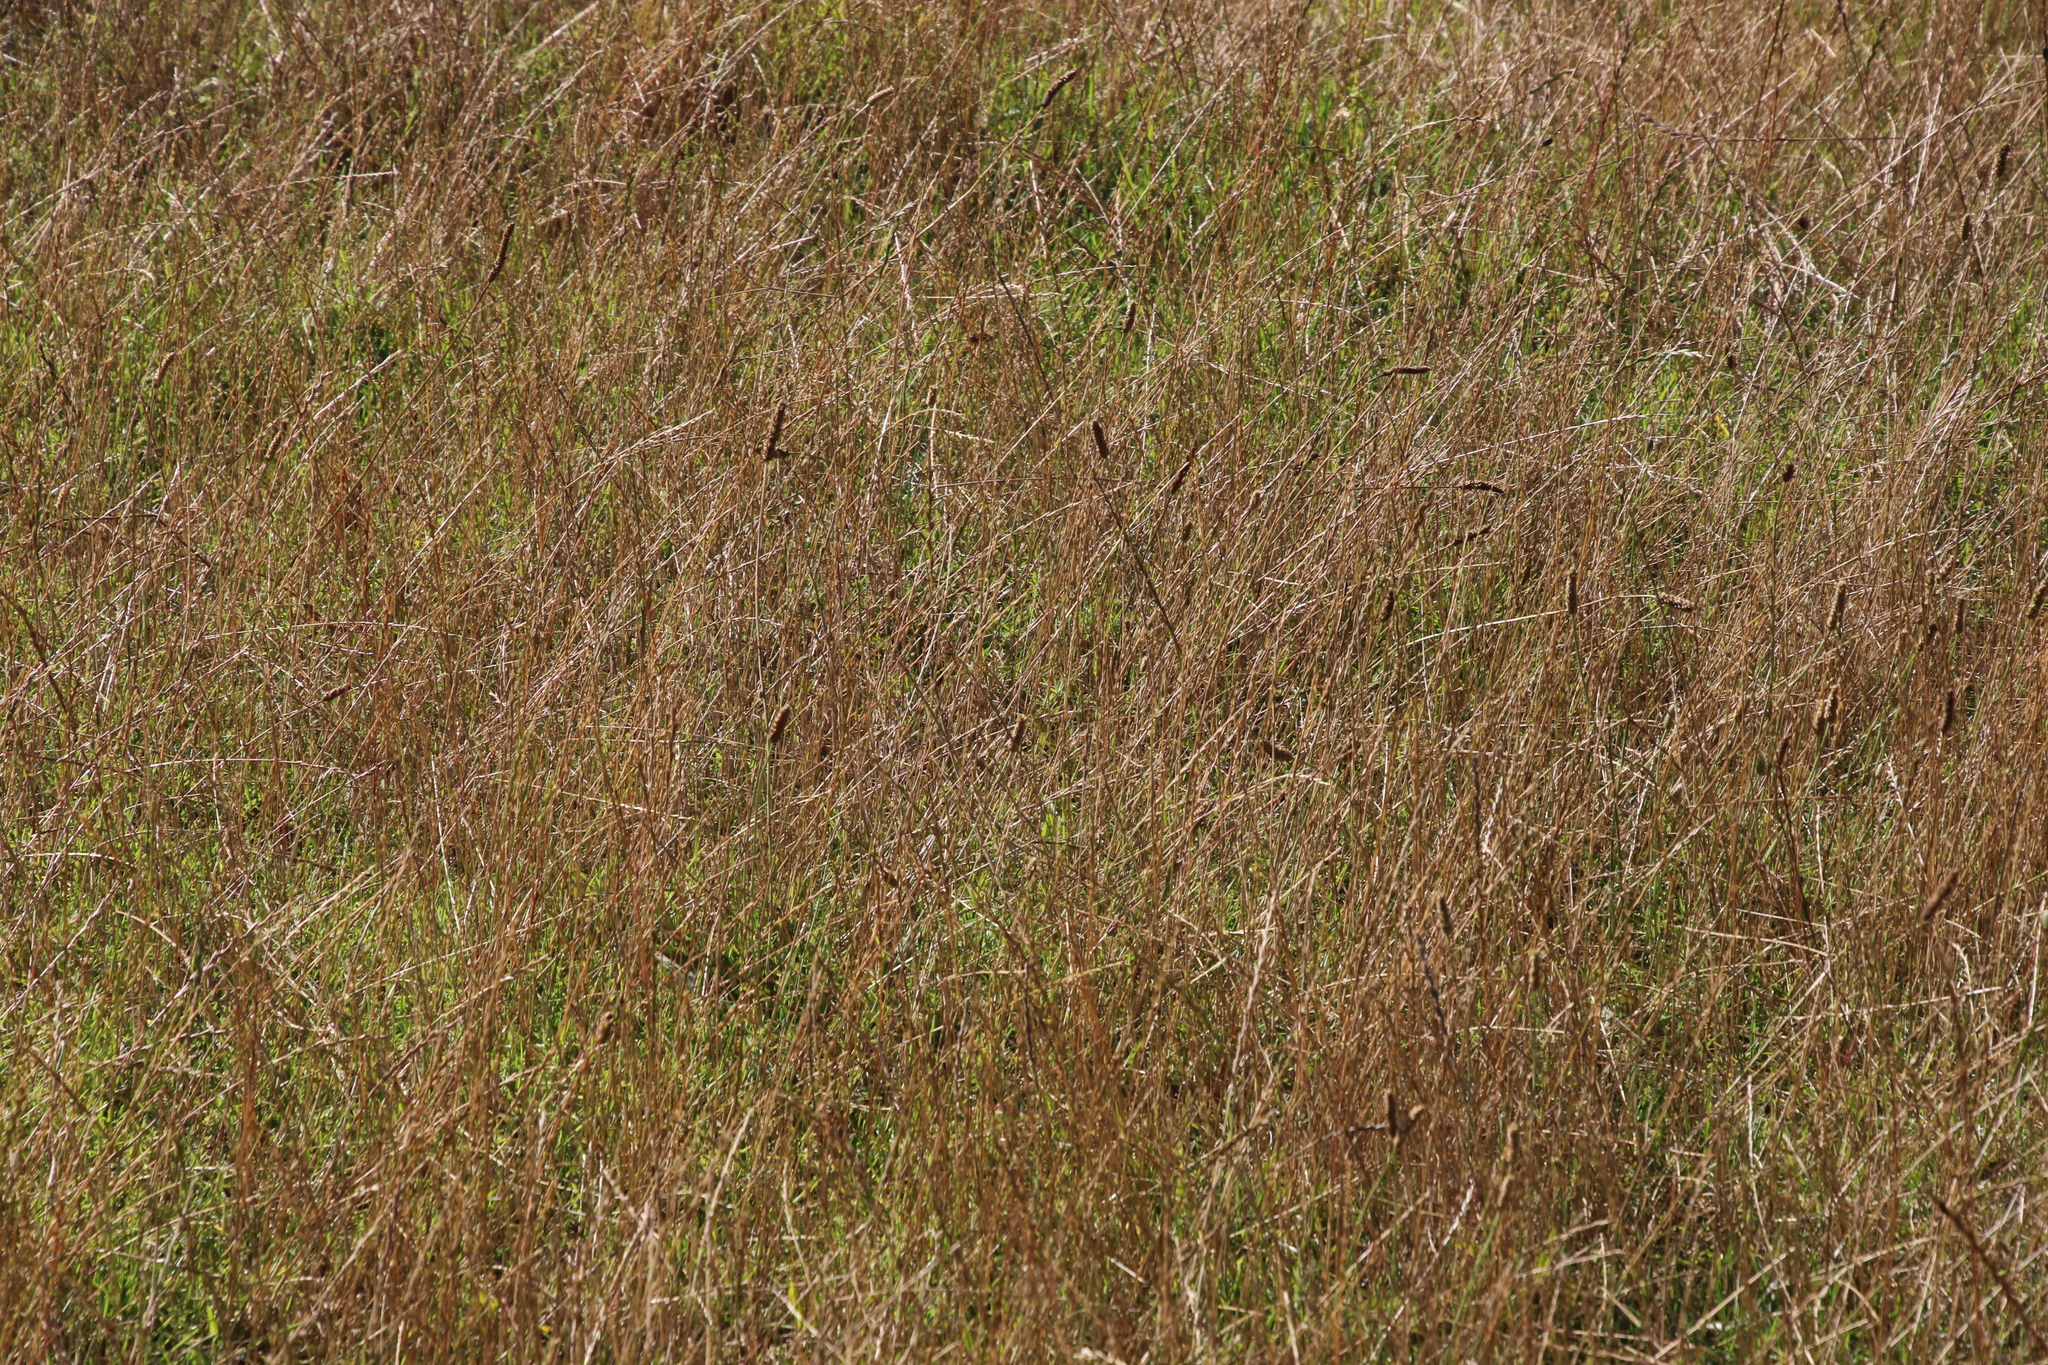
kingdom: Plantae
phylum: Tracheophyta
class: Liliopsida
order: Poales
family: Poaceae
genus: Lolium
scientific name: Lolium perenne
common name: Perennial ryegrass
